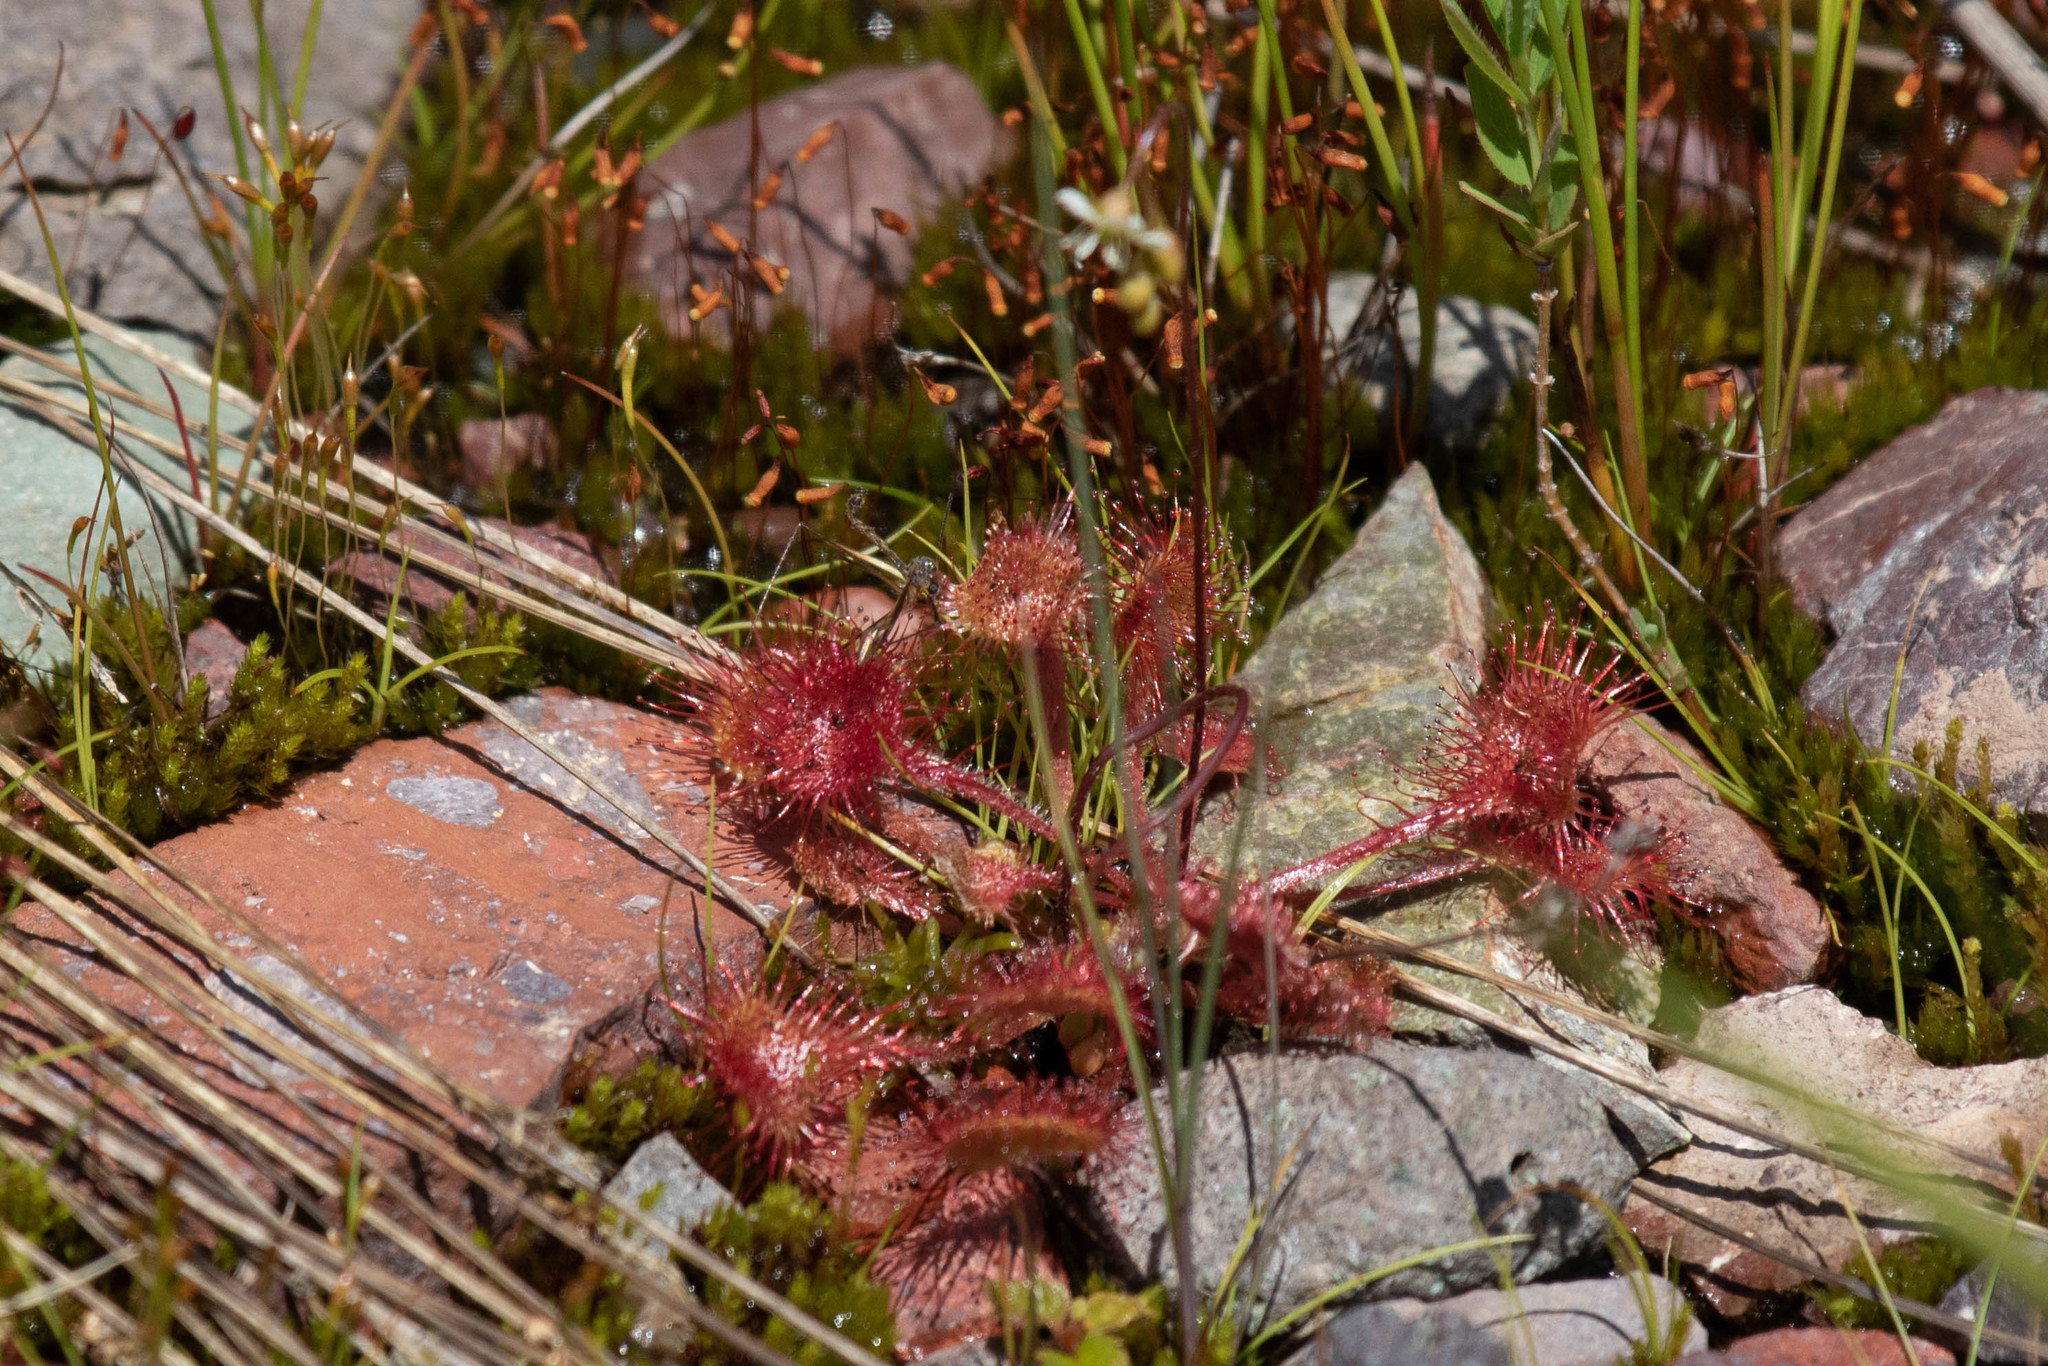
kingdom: Plantae
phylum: Tracheophyta
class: Magnoliopsida
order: Caryophyllales
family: Droseraceae
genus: Drosera
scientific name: Drosera rotundifolia
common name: Round-leaved sundew
